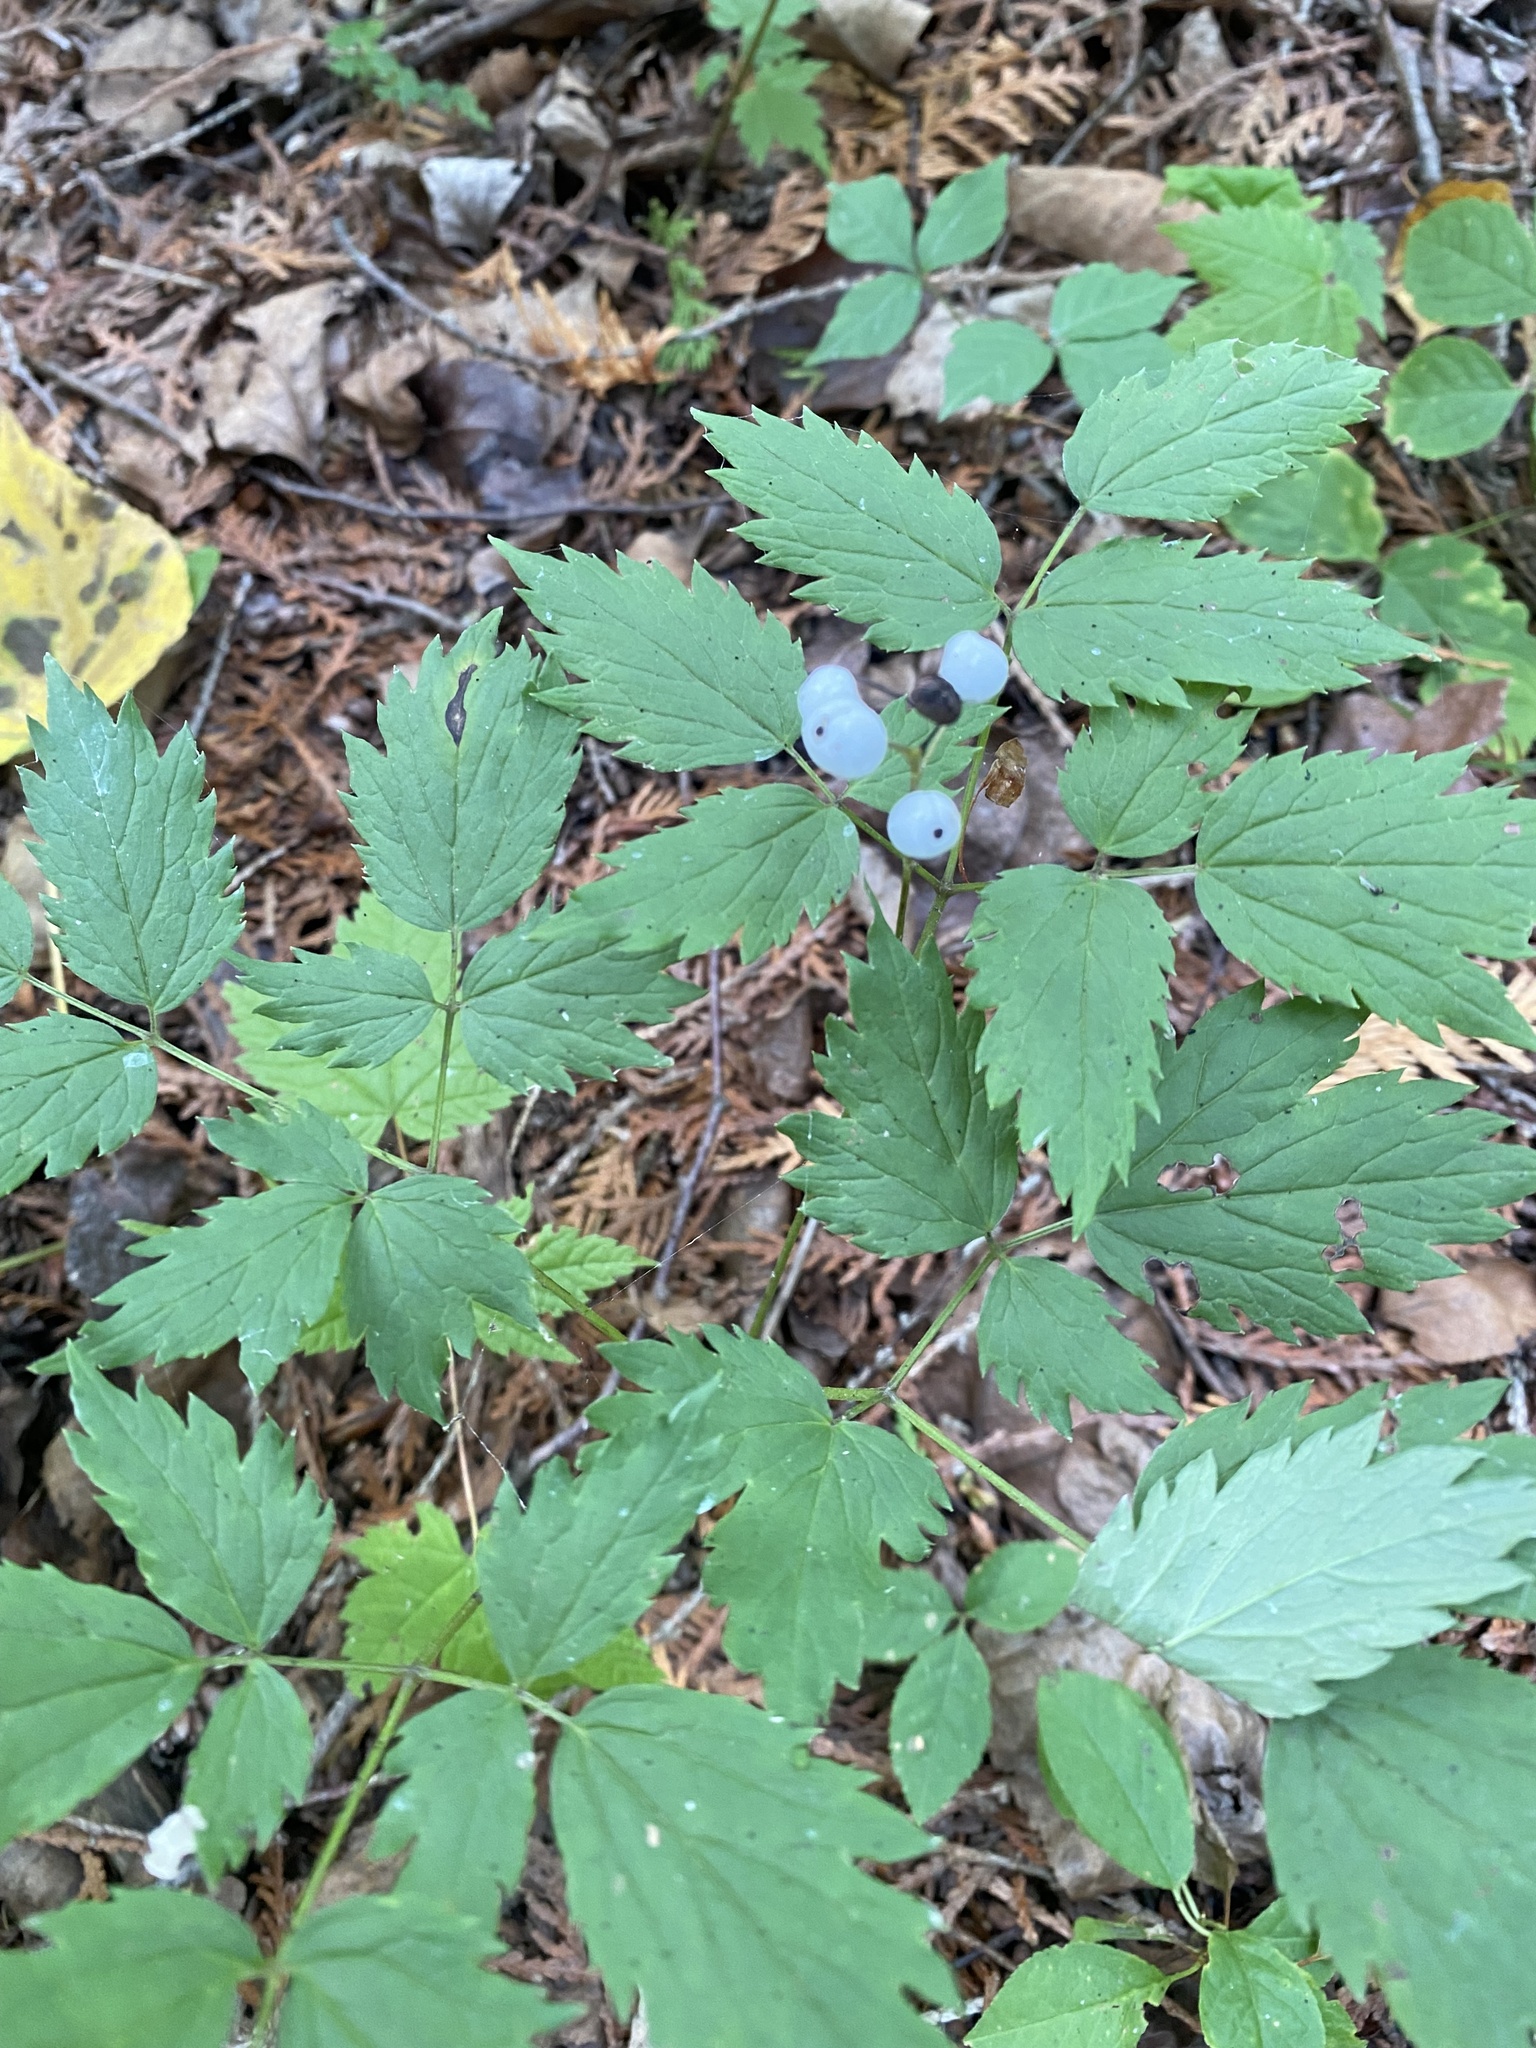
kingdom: Plantae
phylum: Tracheophyta
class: Magnoliopsida
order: Ranunculales
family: Ranunculaceae
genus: Actaea
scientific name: Actaea pachypoda
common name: Doll's-eyes
